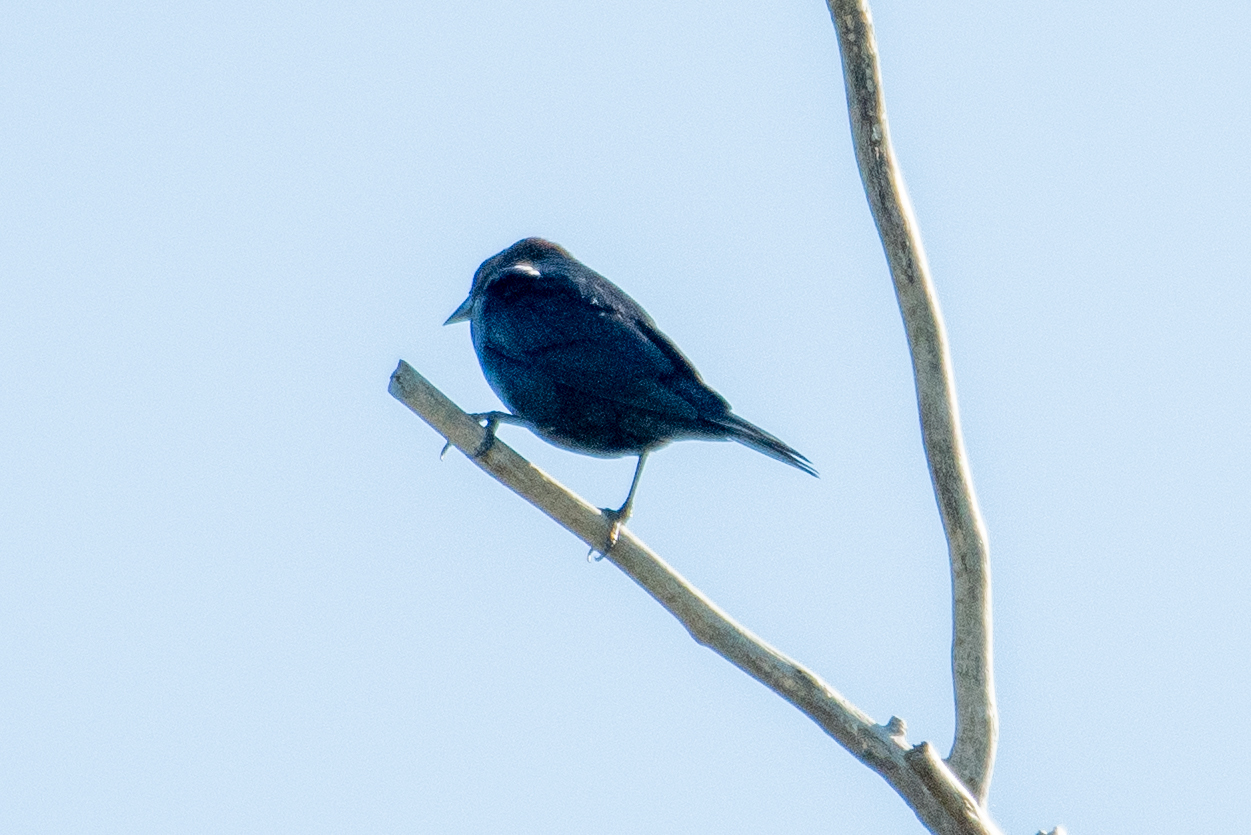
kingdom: Animalia
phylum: Chordata
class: Aves
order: Passeriformes
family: Icteridae
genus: Molothrus
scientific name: Molothrus ater
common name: Brown-headed cowbird
